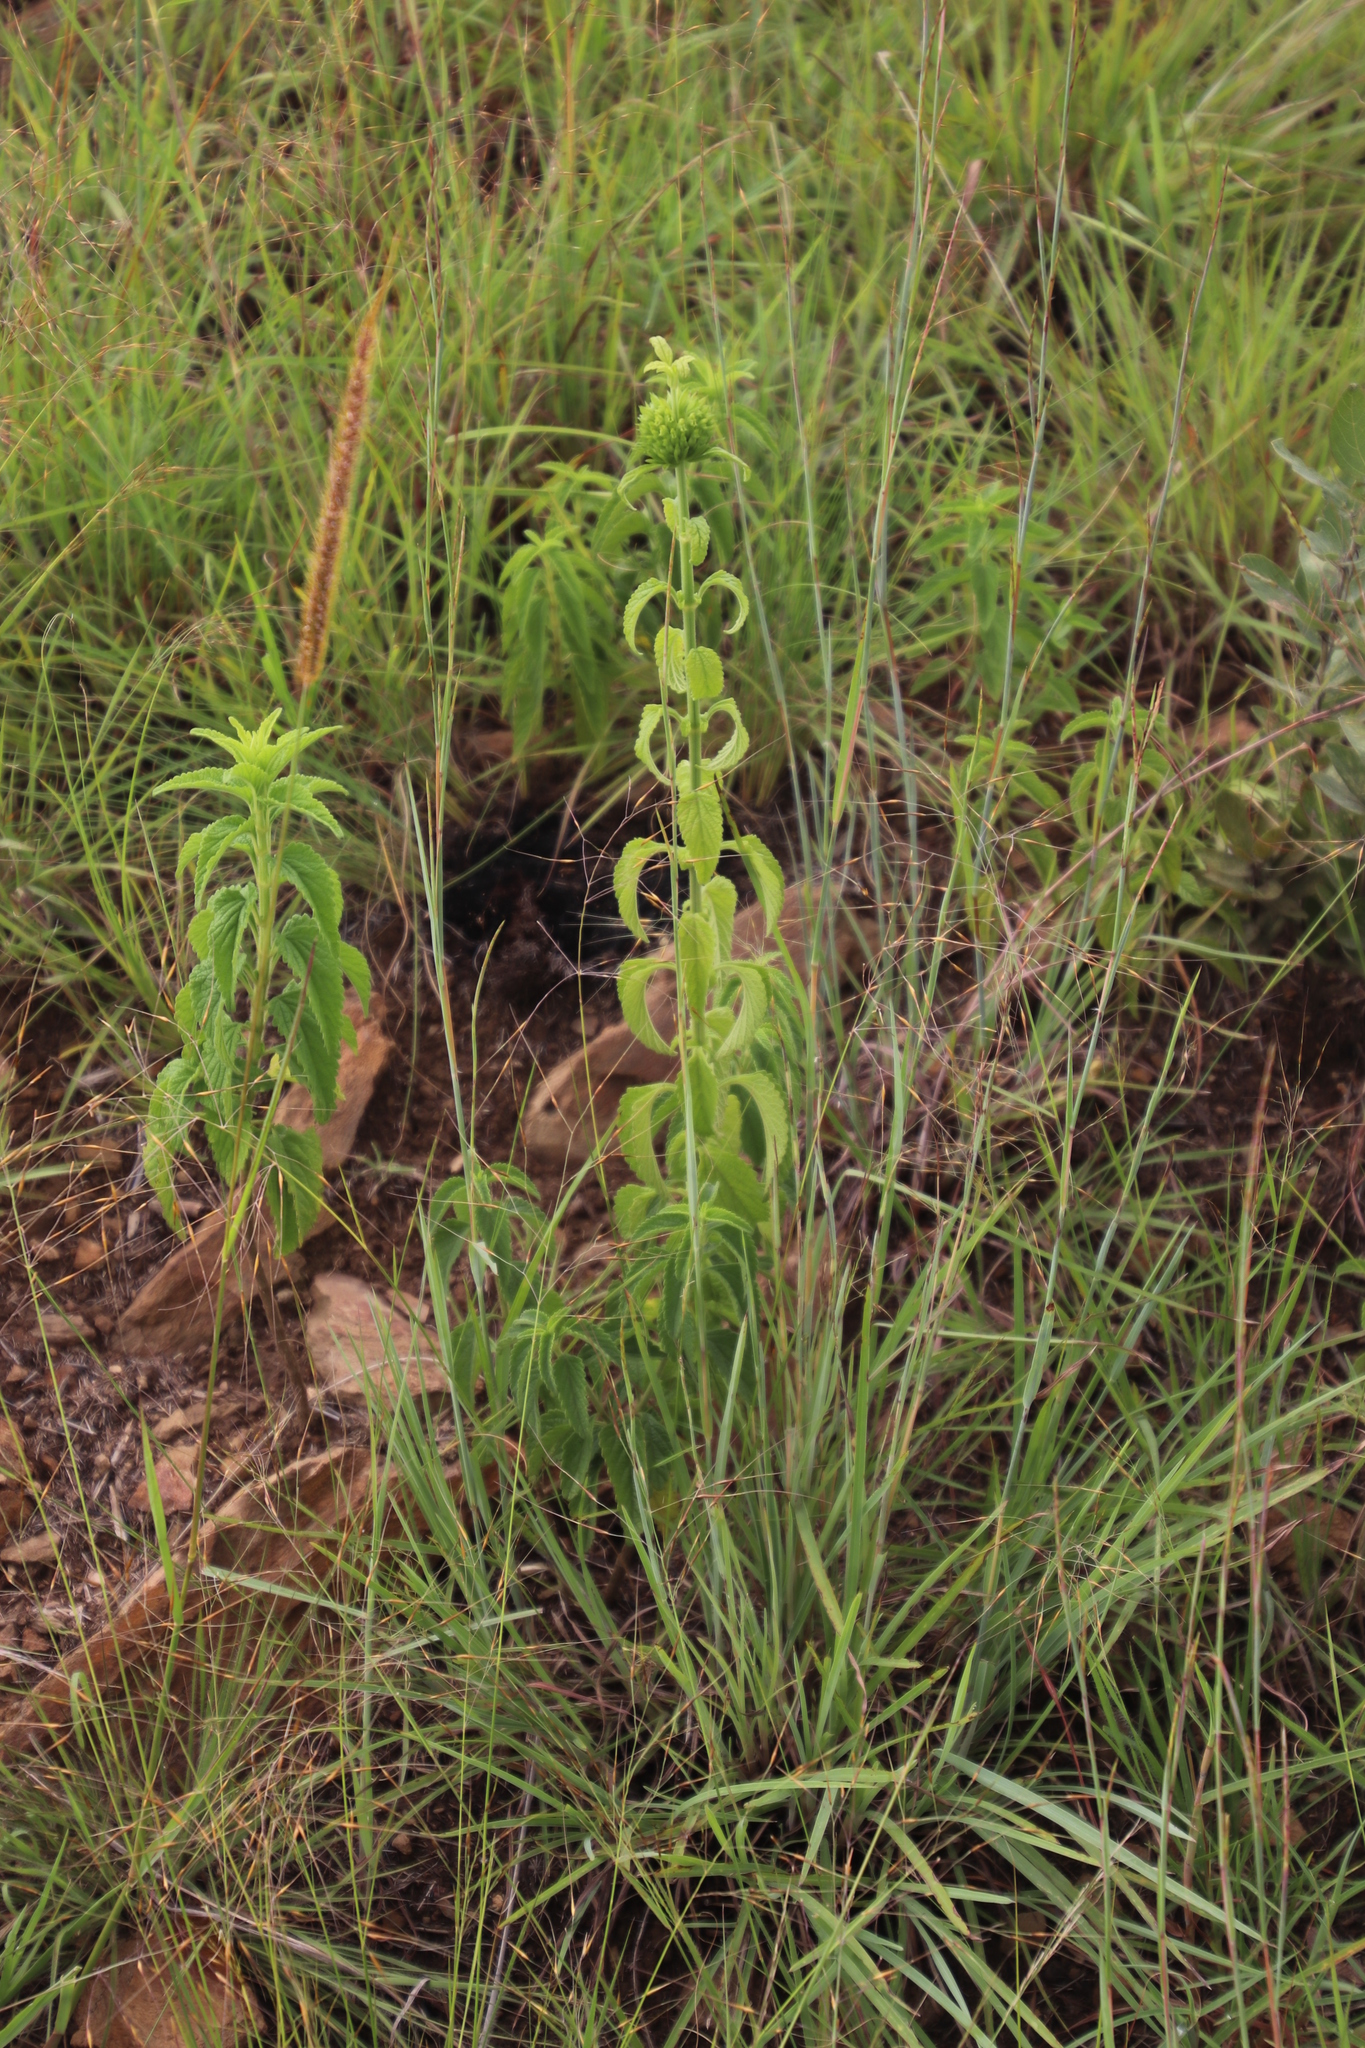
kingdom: Plantae
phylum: Tracheophyta
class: Magnoliopsida
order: Lamiales
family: Lamiaceae
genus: Leonotis
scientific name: Leonotis ocymifolia
